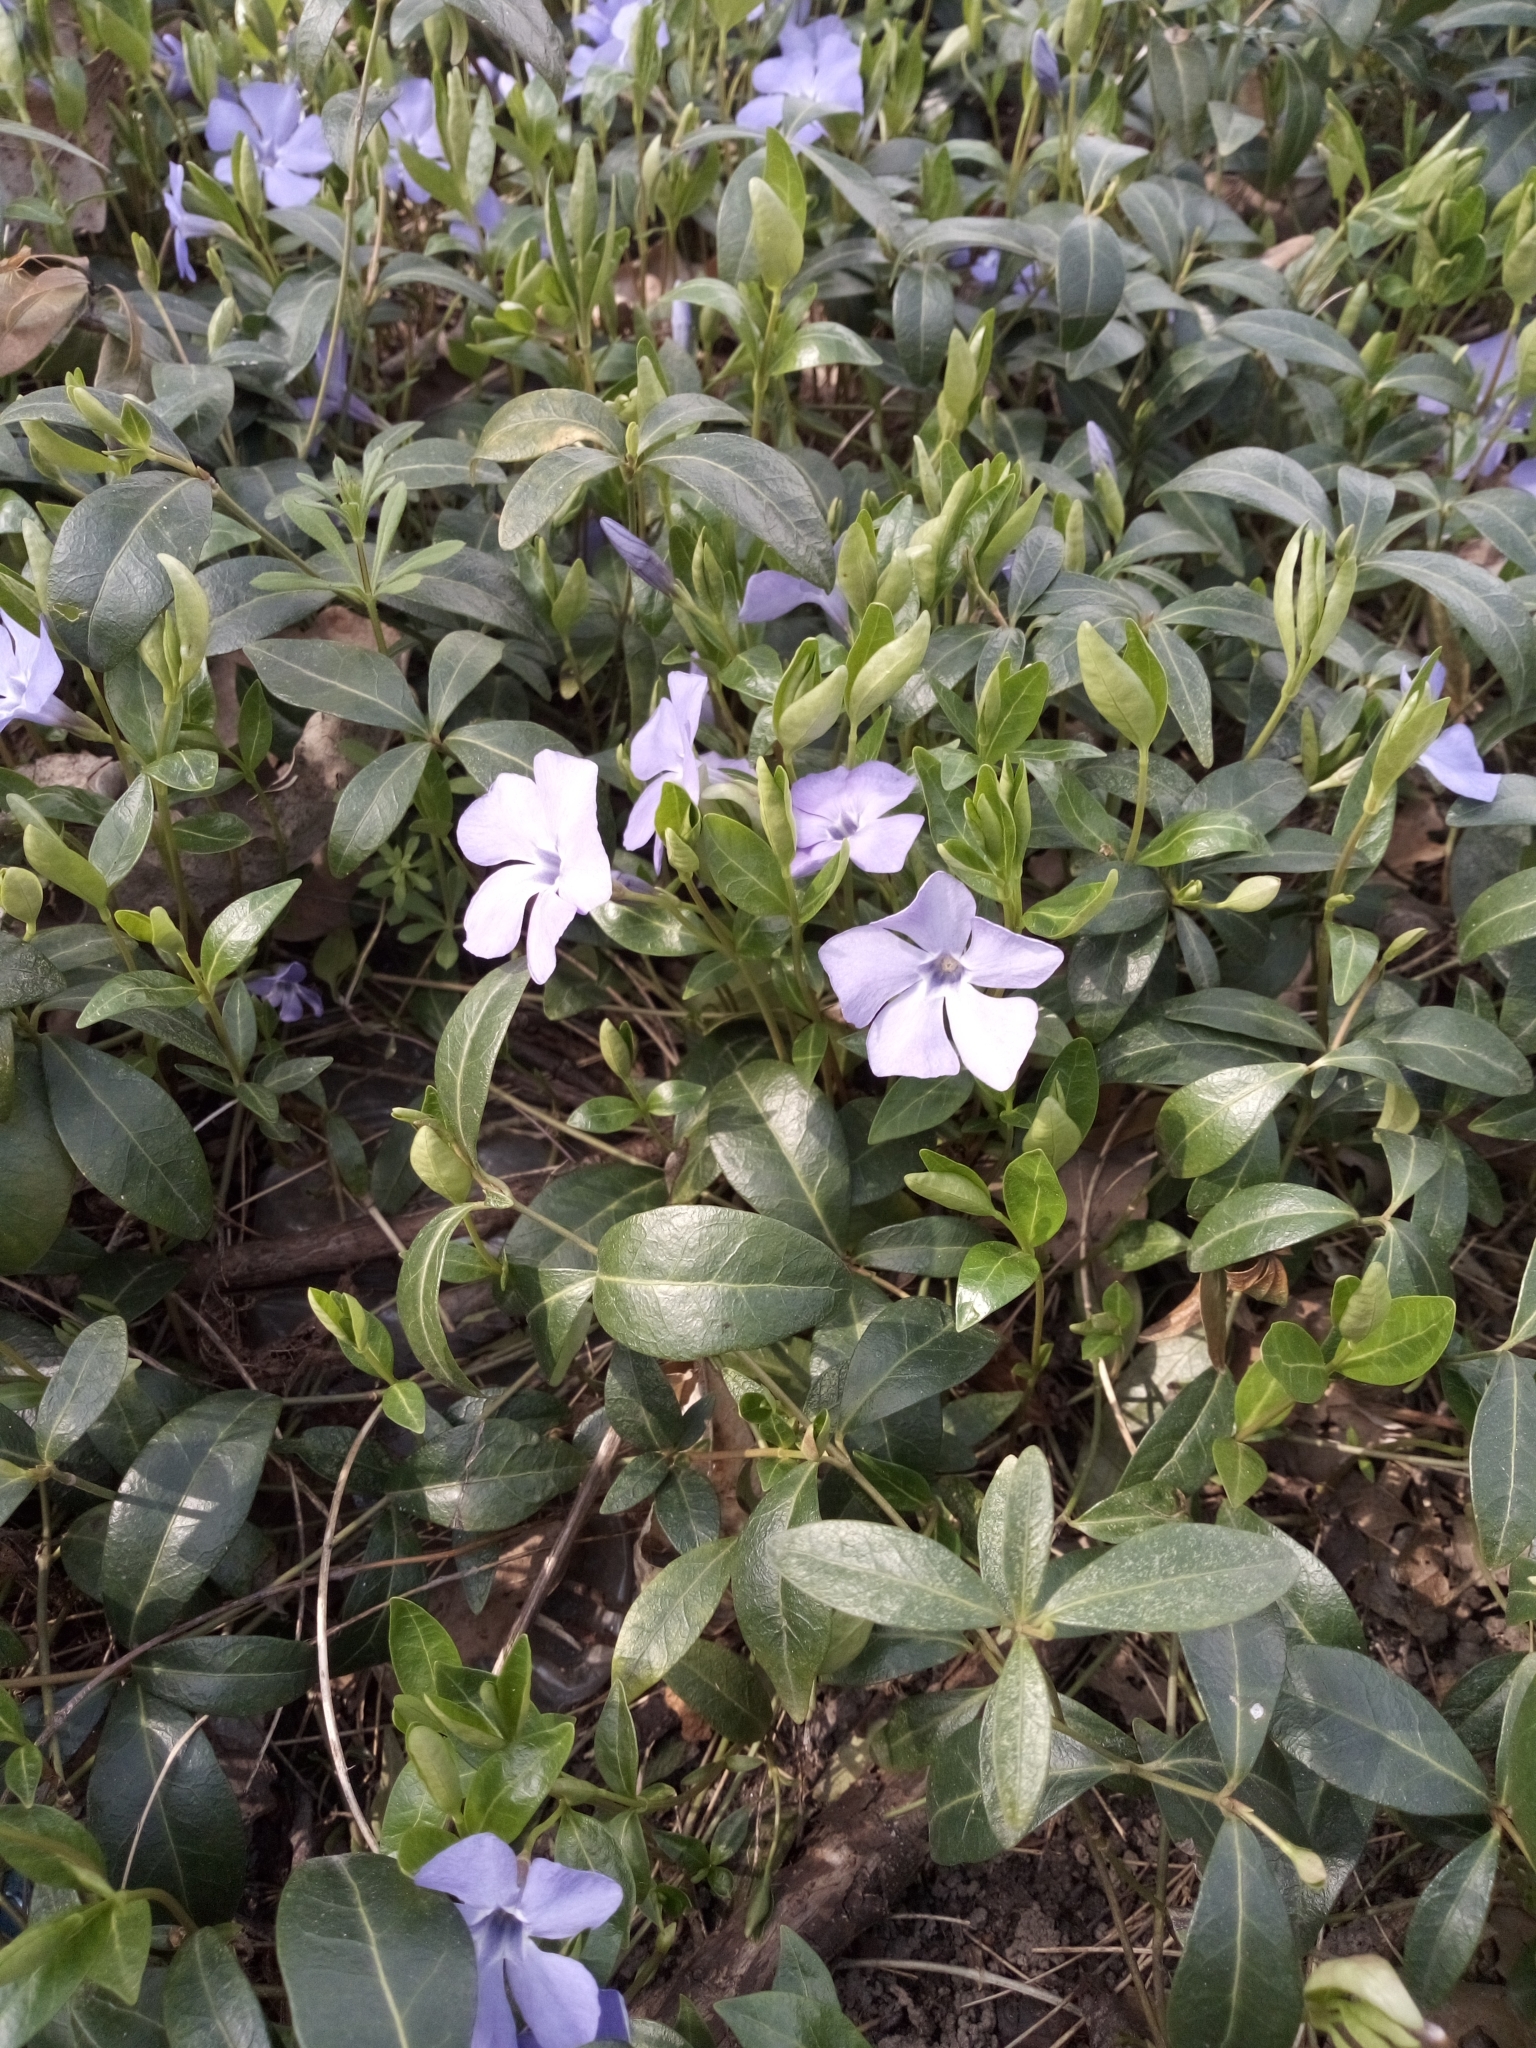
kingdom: Plantae
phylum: Tracheophyta
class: Magnoliopsida
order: Gentianales
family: Apocynaceae
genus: Vinca
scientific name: Vinca minor
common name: Lesser periwinkle
